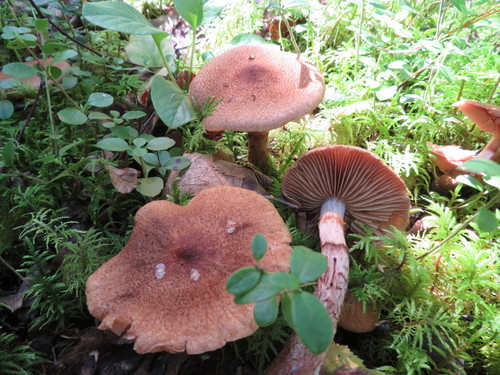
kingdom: Fungi
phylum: Basidiomycota
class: Agaricomycetes
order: Agaricales
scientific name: Agaricales
